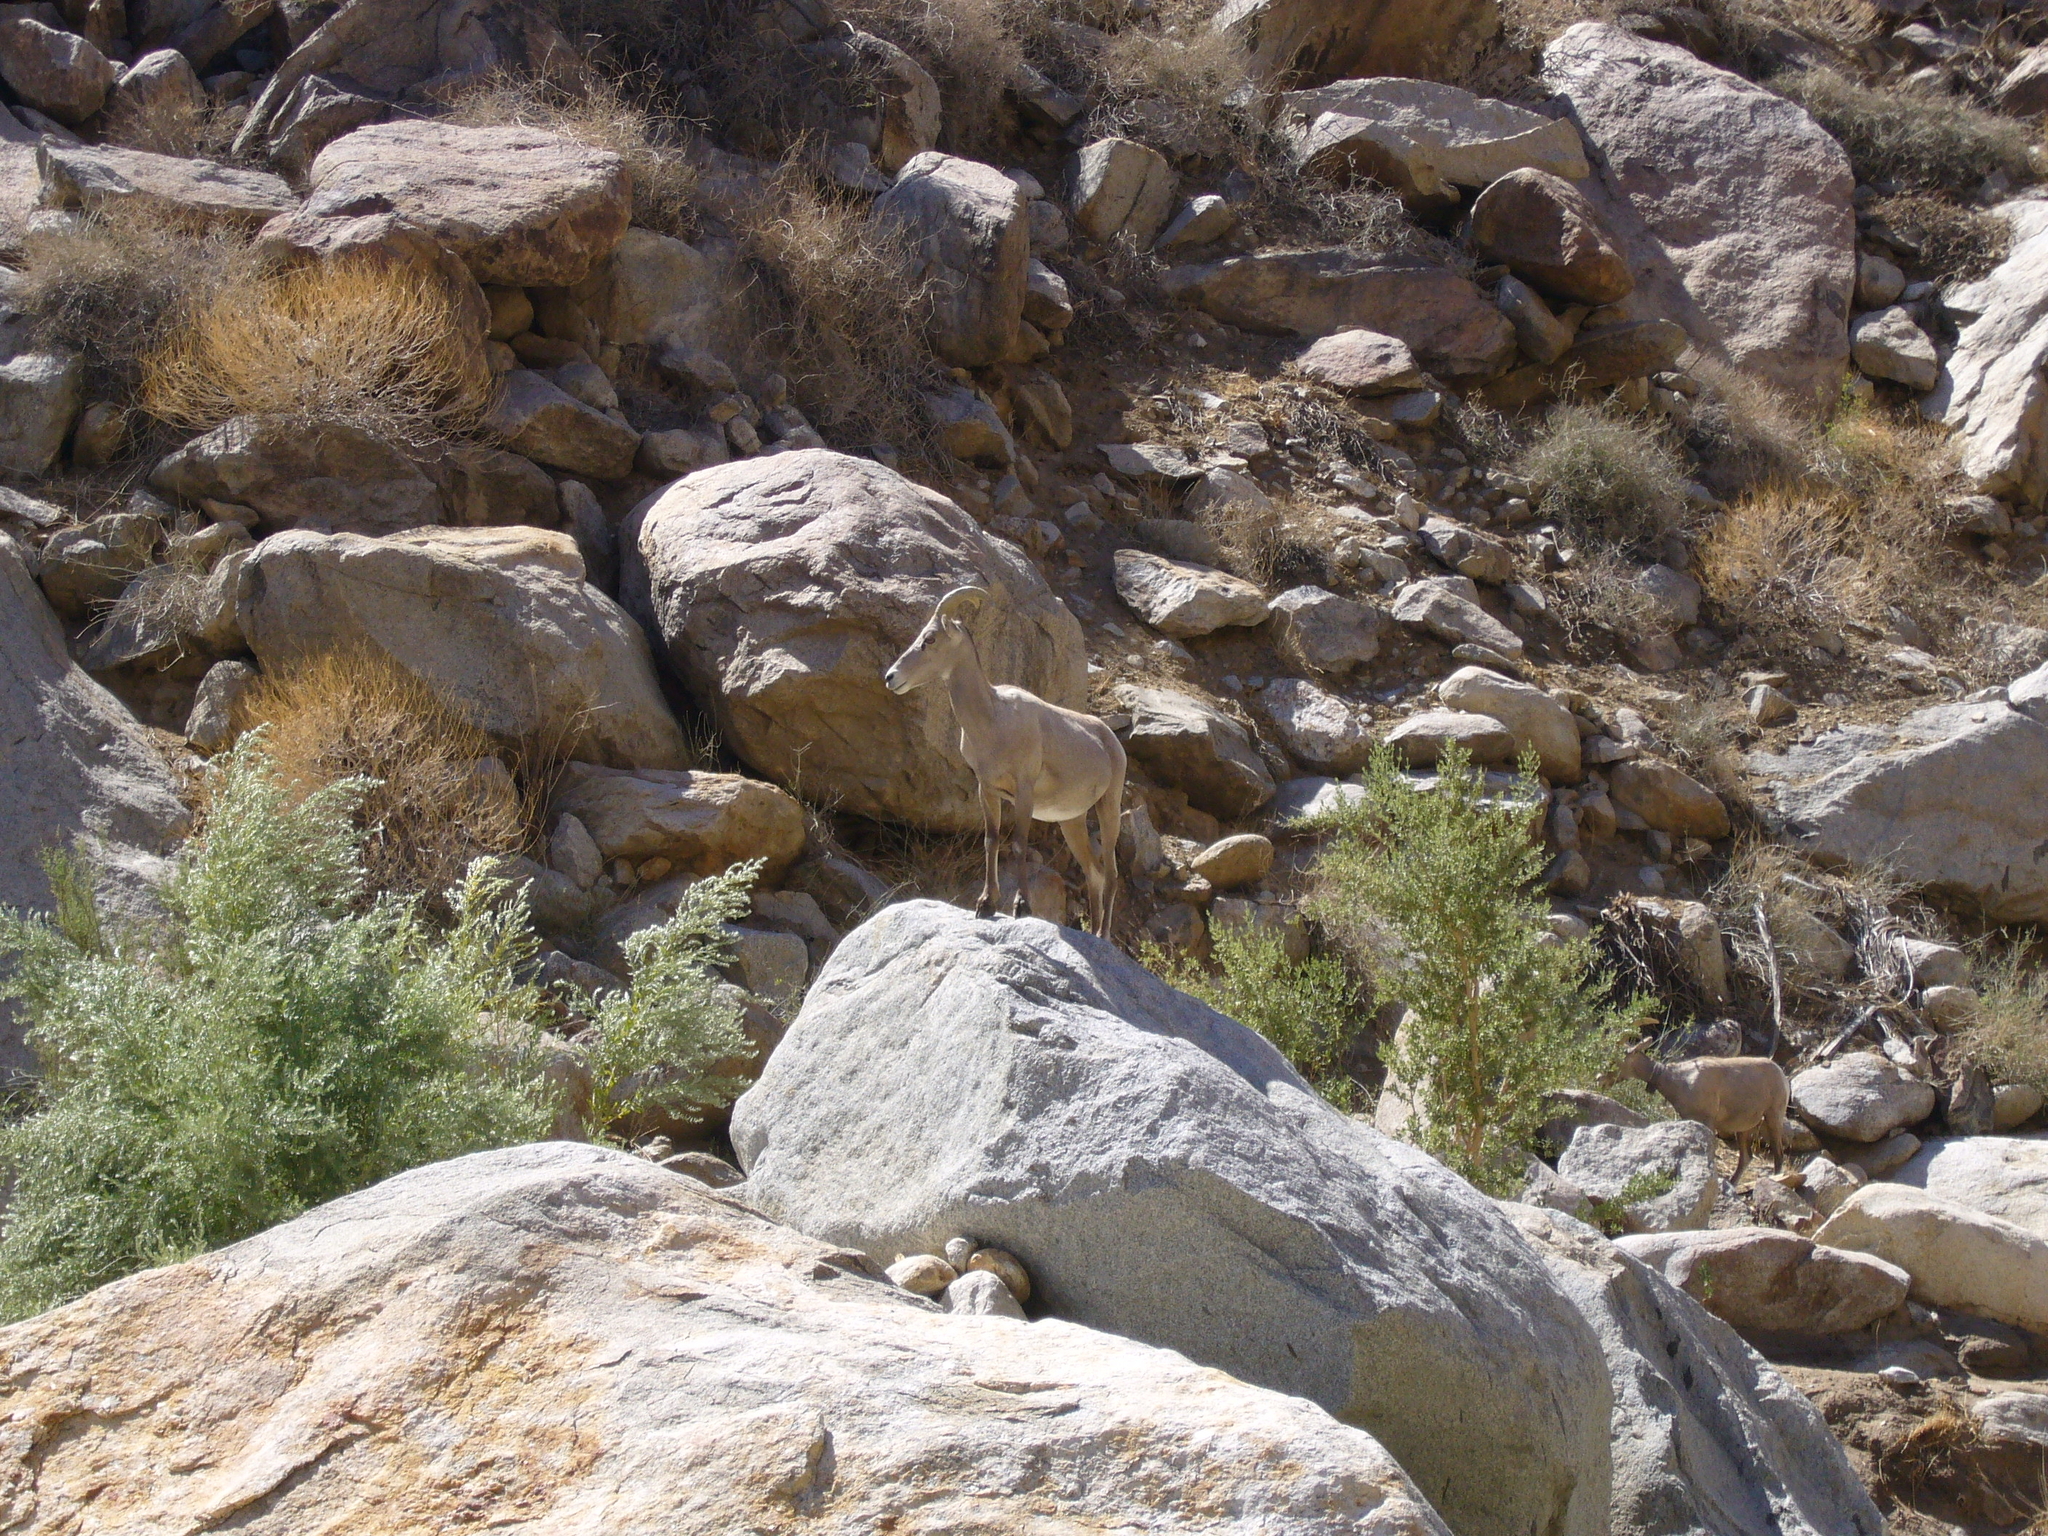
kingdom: Animalia
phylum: Chordata
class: Mammalia
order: Artiodactyla
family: Bovidae
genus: Ovis
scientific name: Ovis canadensis
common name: Bighorn sheep
